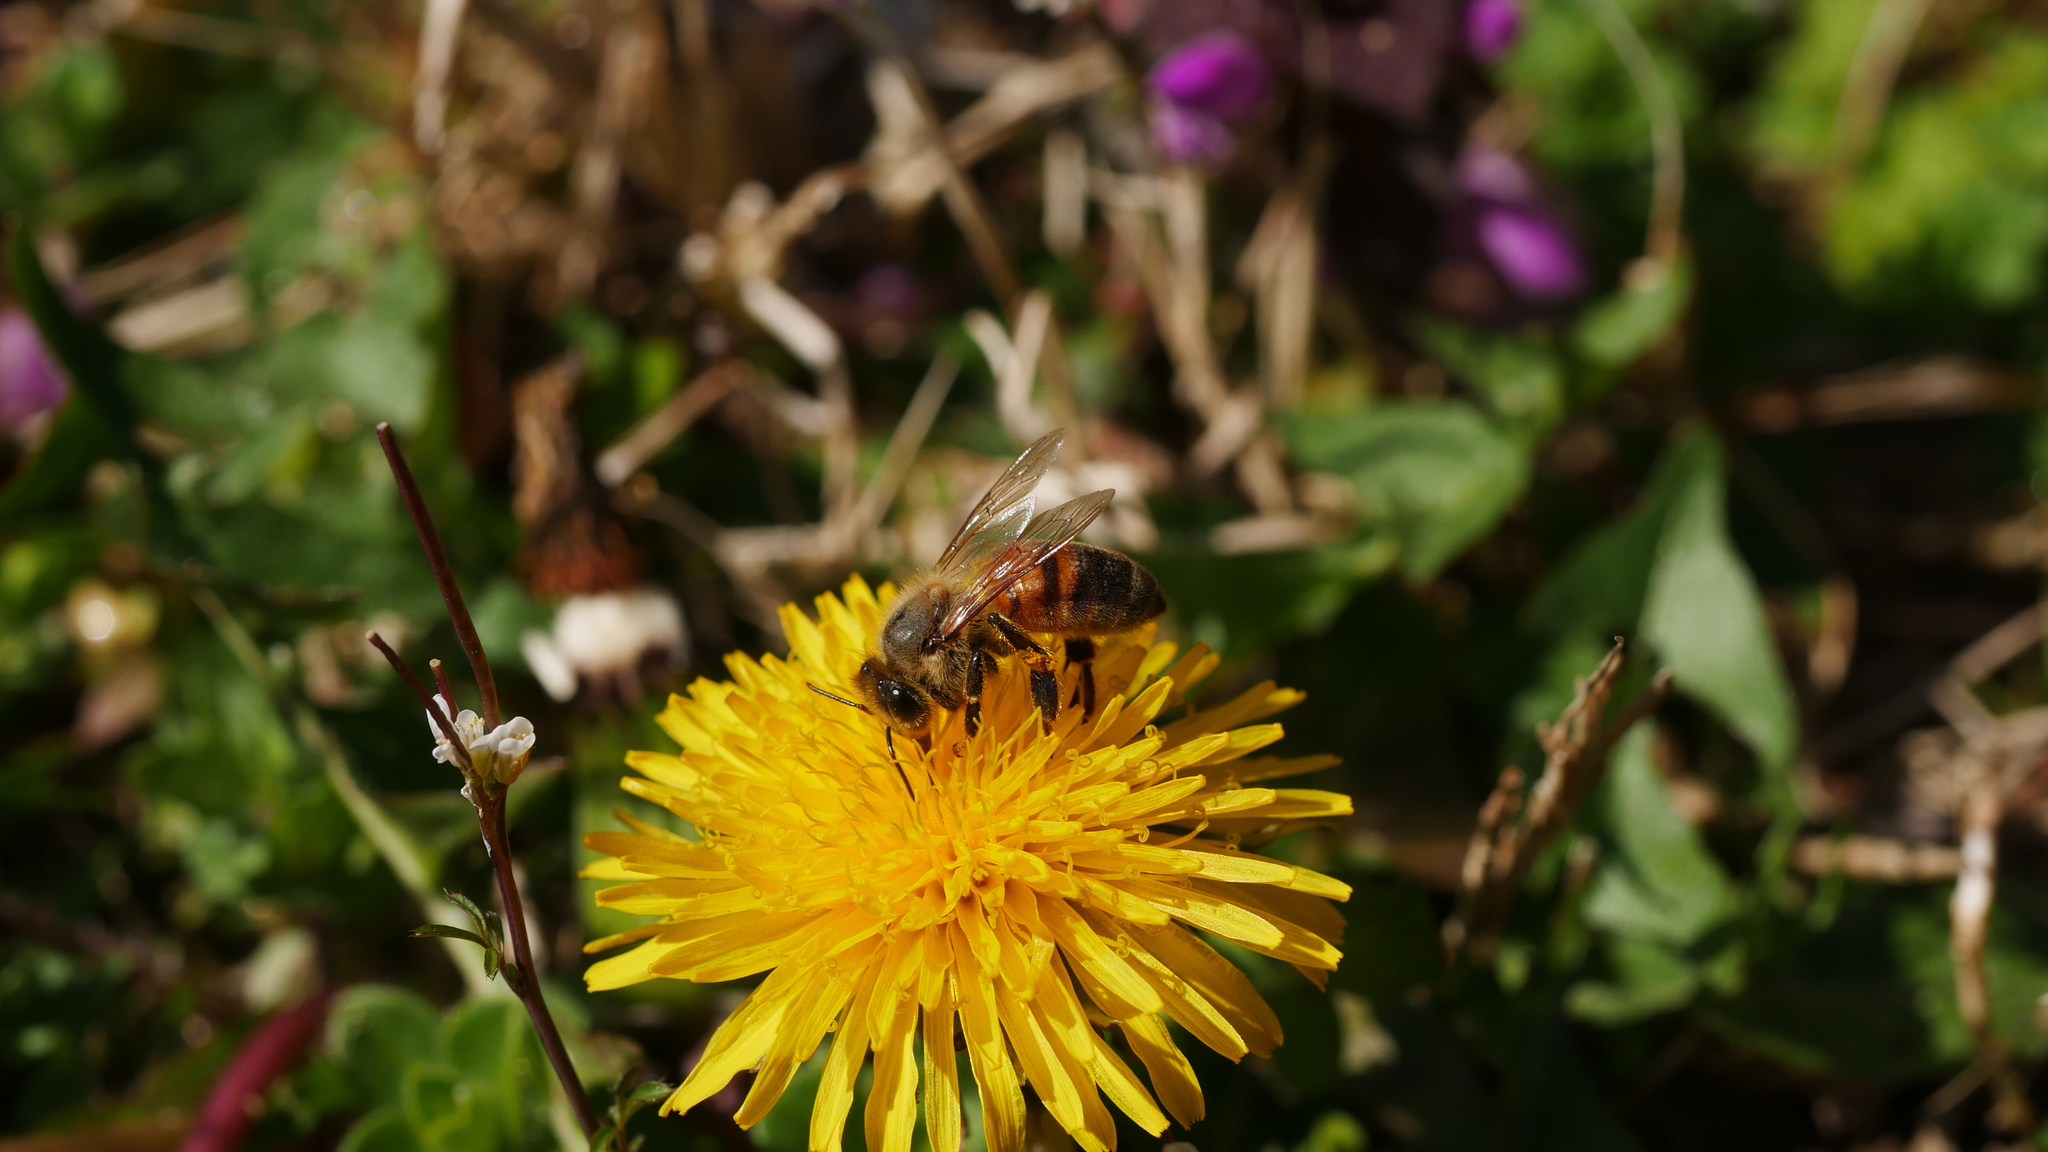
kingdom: Animalia
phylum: Arthropoda
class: Insecta
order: Hymenoptera
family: Apidae
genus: Apis
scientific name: Apis mellifera
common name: Honey bee
